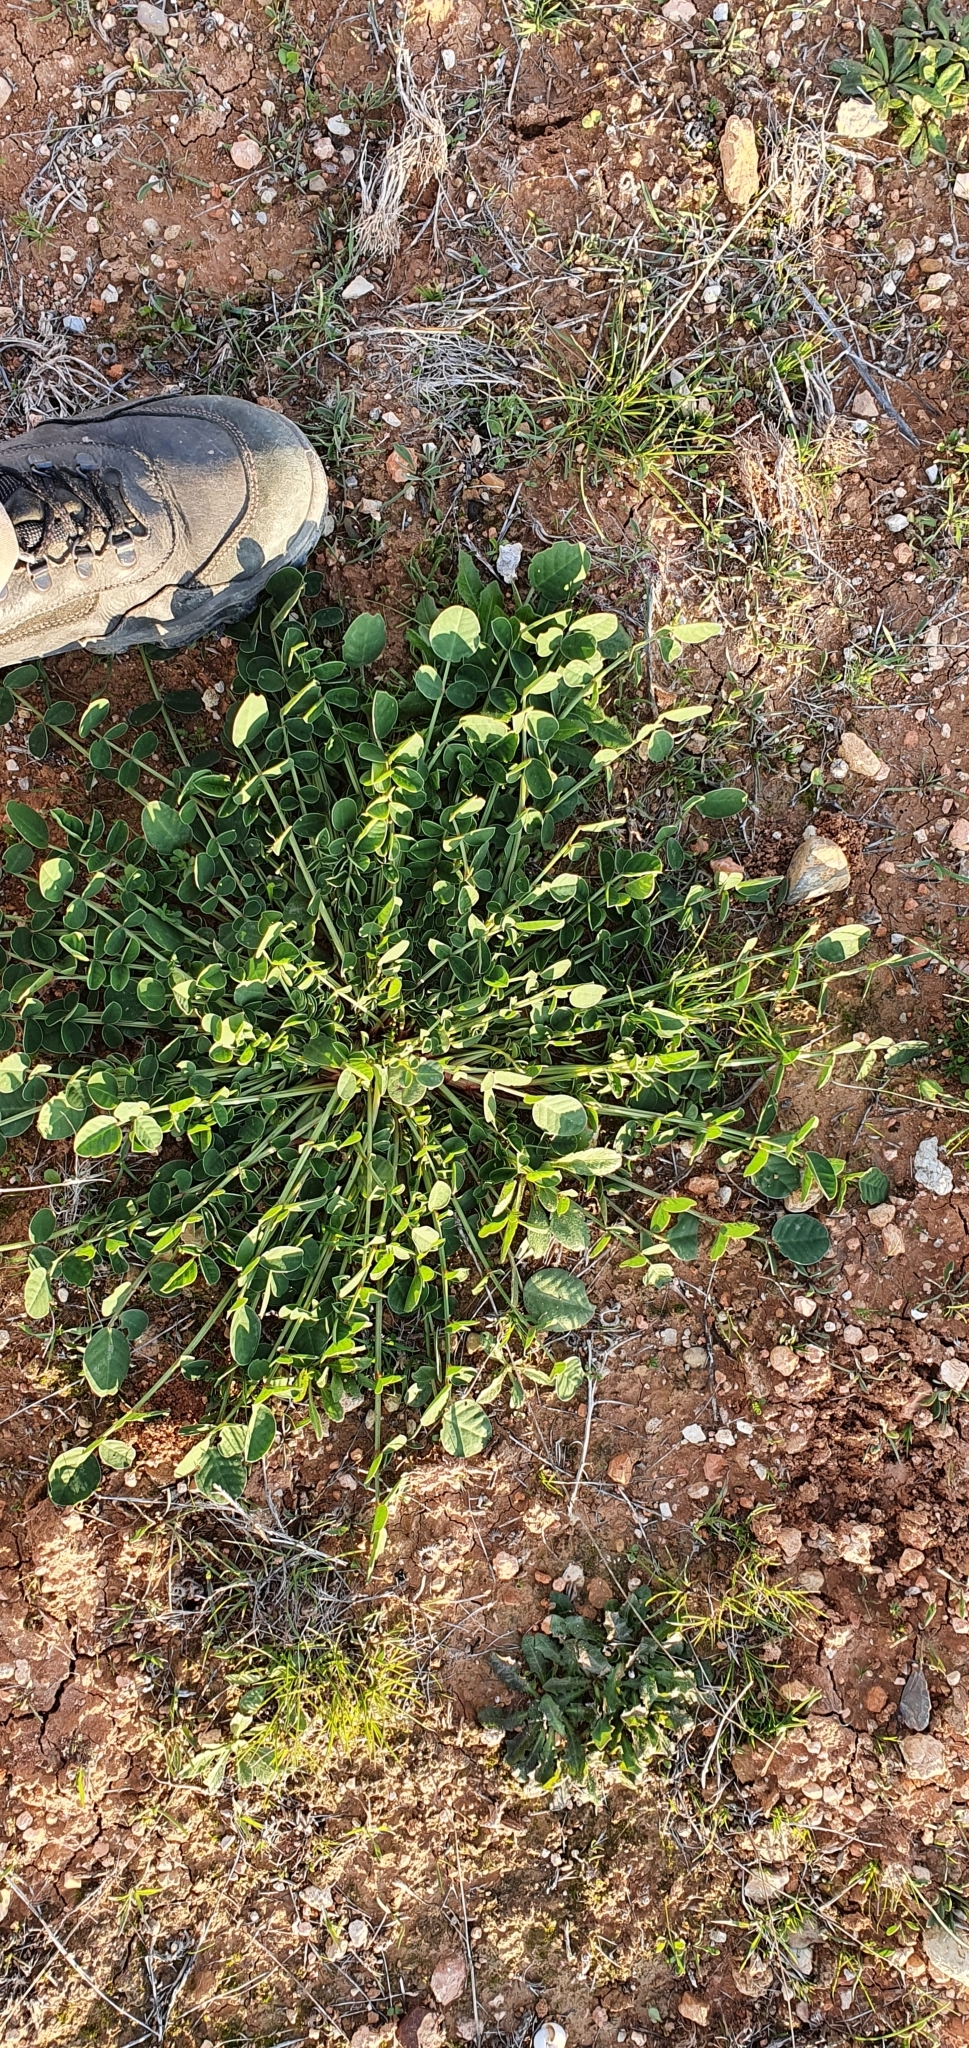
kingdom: Plantae
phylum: Tracheophyta
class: Magnoliopsida
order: Fabales
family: Fabaceae
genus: Sulla
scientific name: Sulla coronaria
